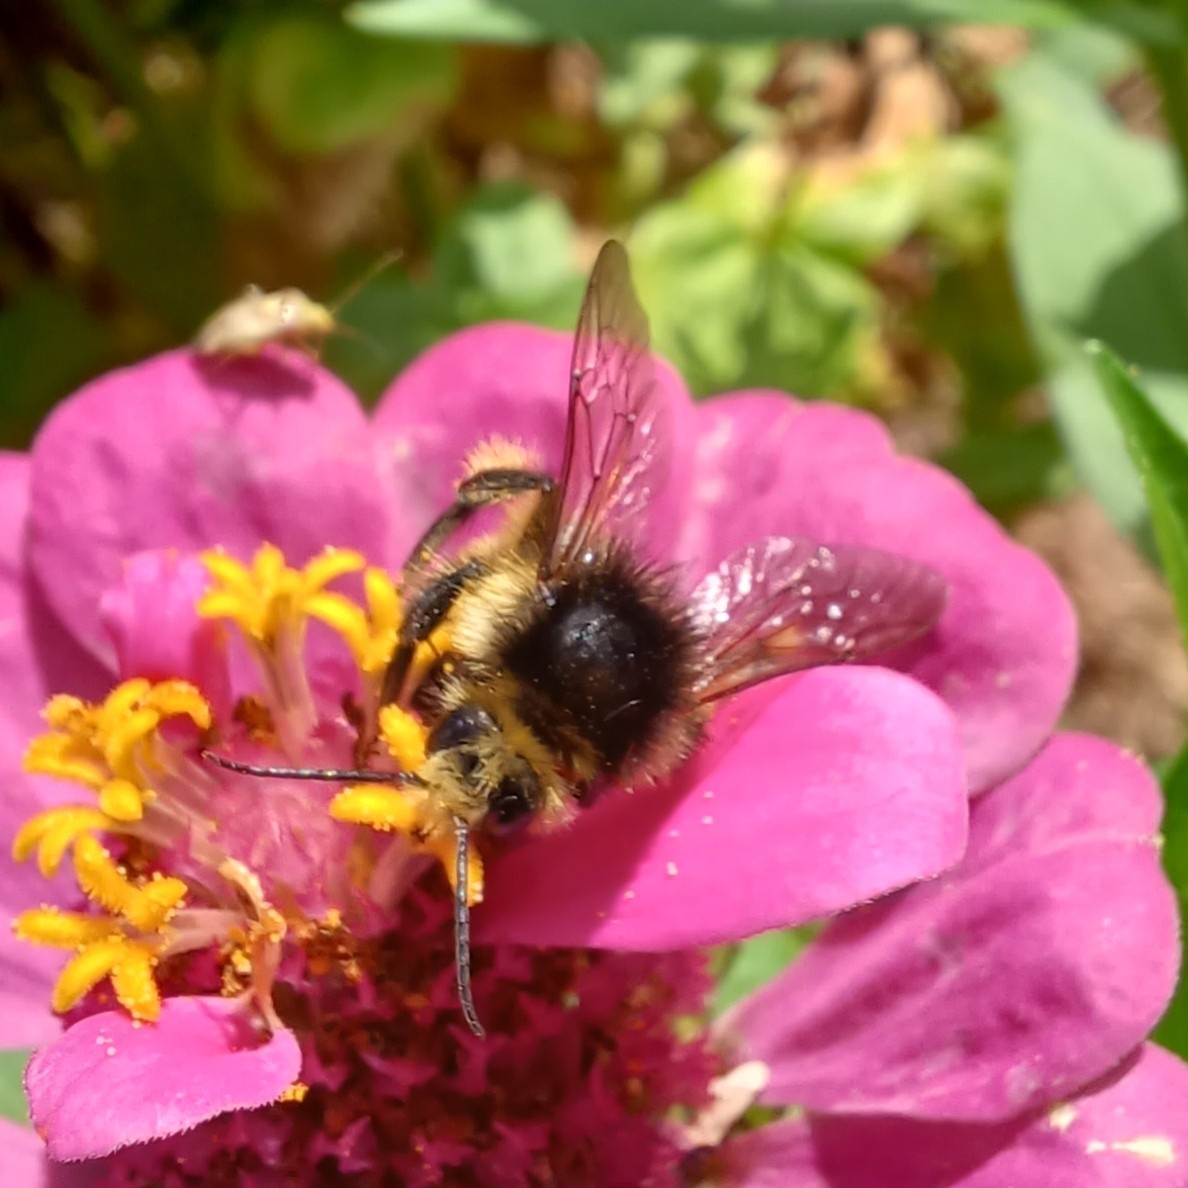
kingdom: Animalia
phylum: Arthropoda
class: Insecta
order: Hymenoptera
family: Apidae
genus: Bombus
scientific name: Bombus humilis
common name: Brown-banded carder-bee
